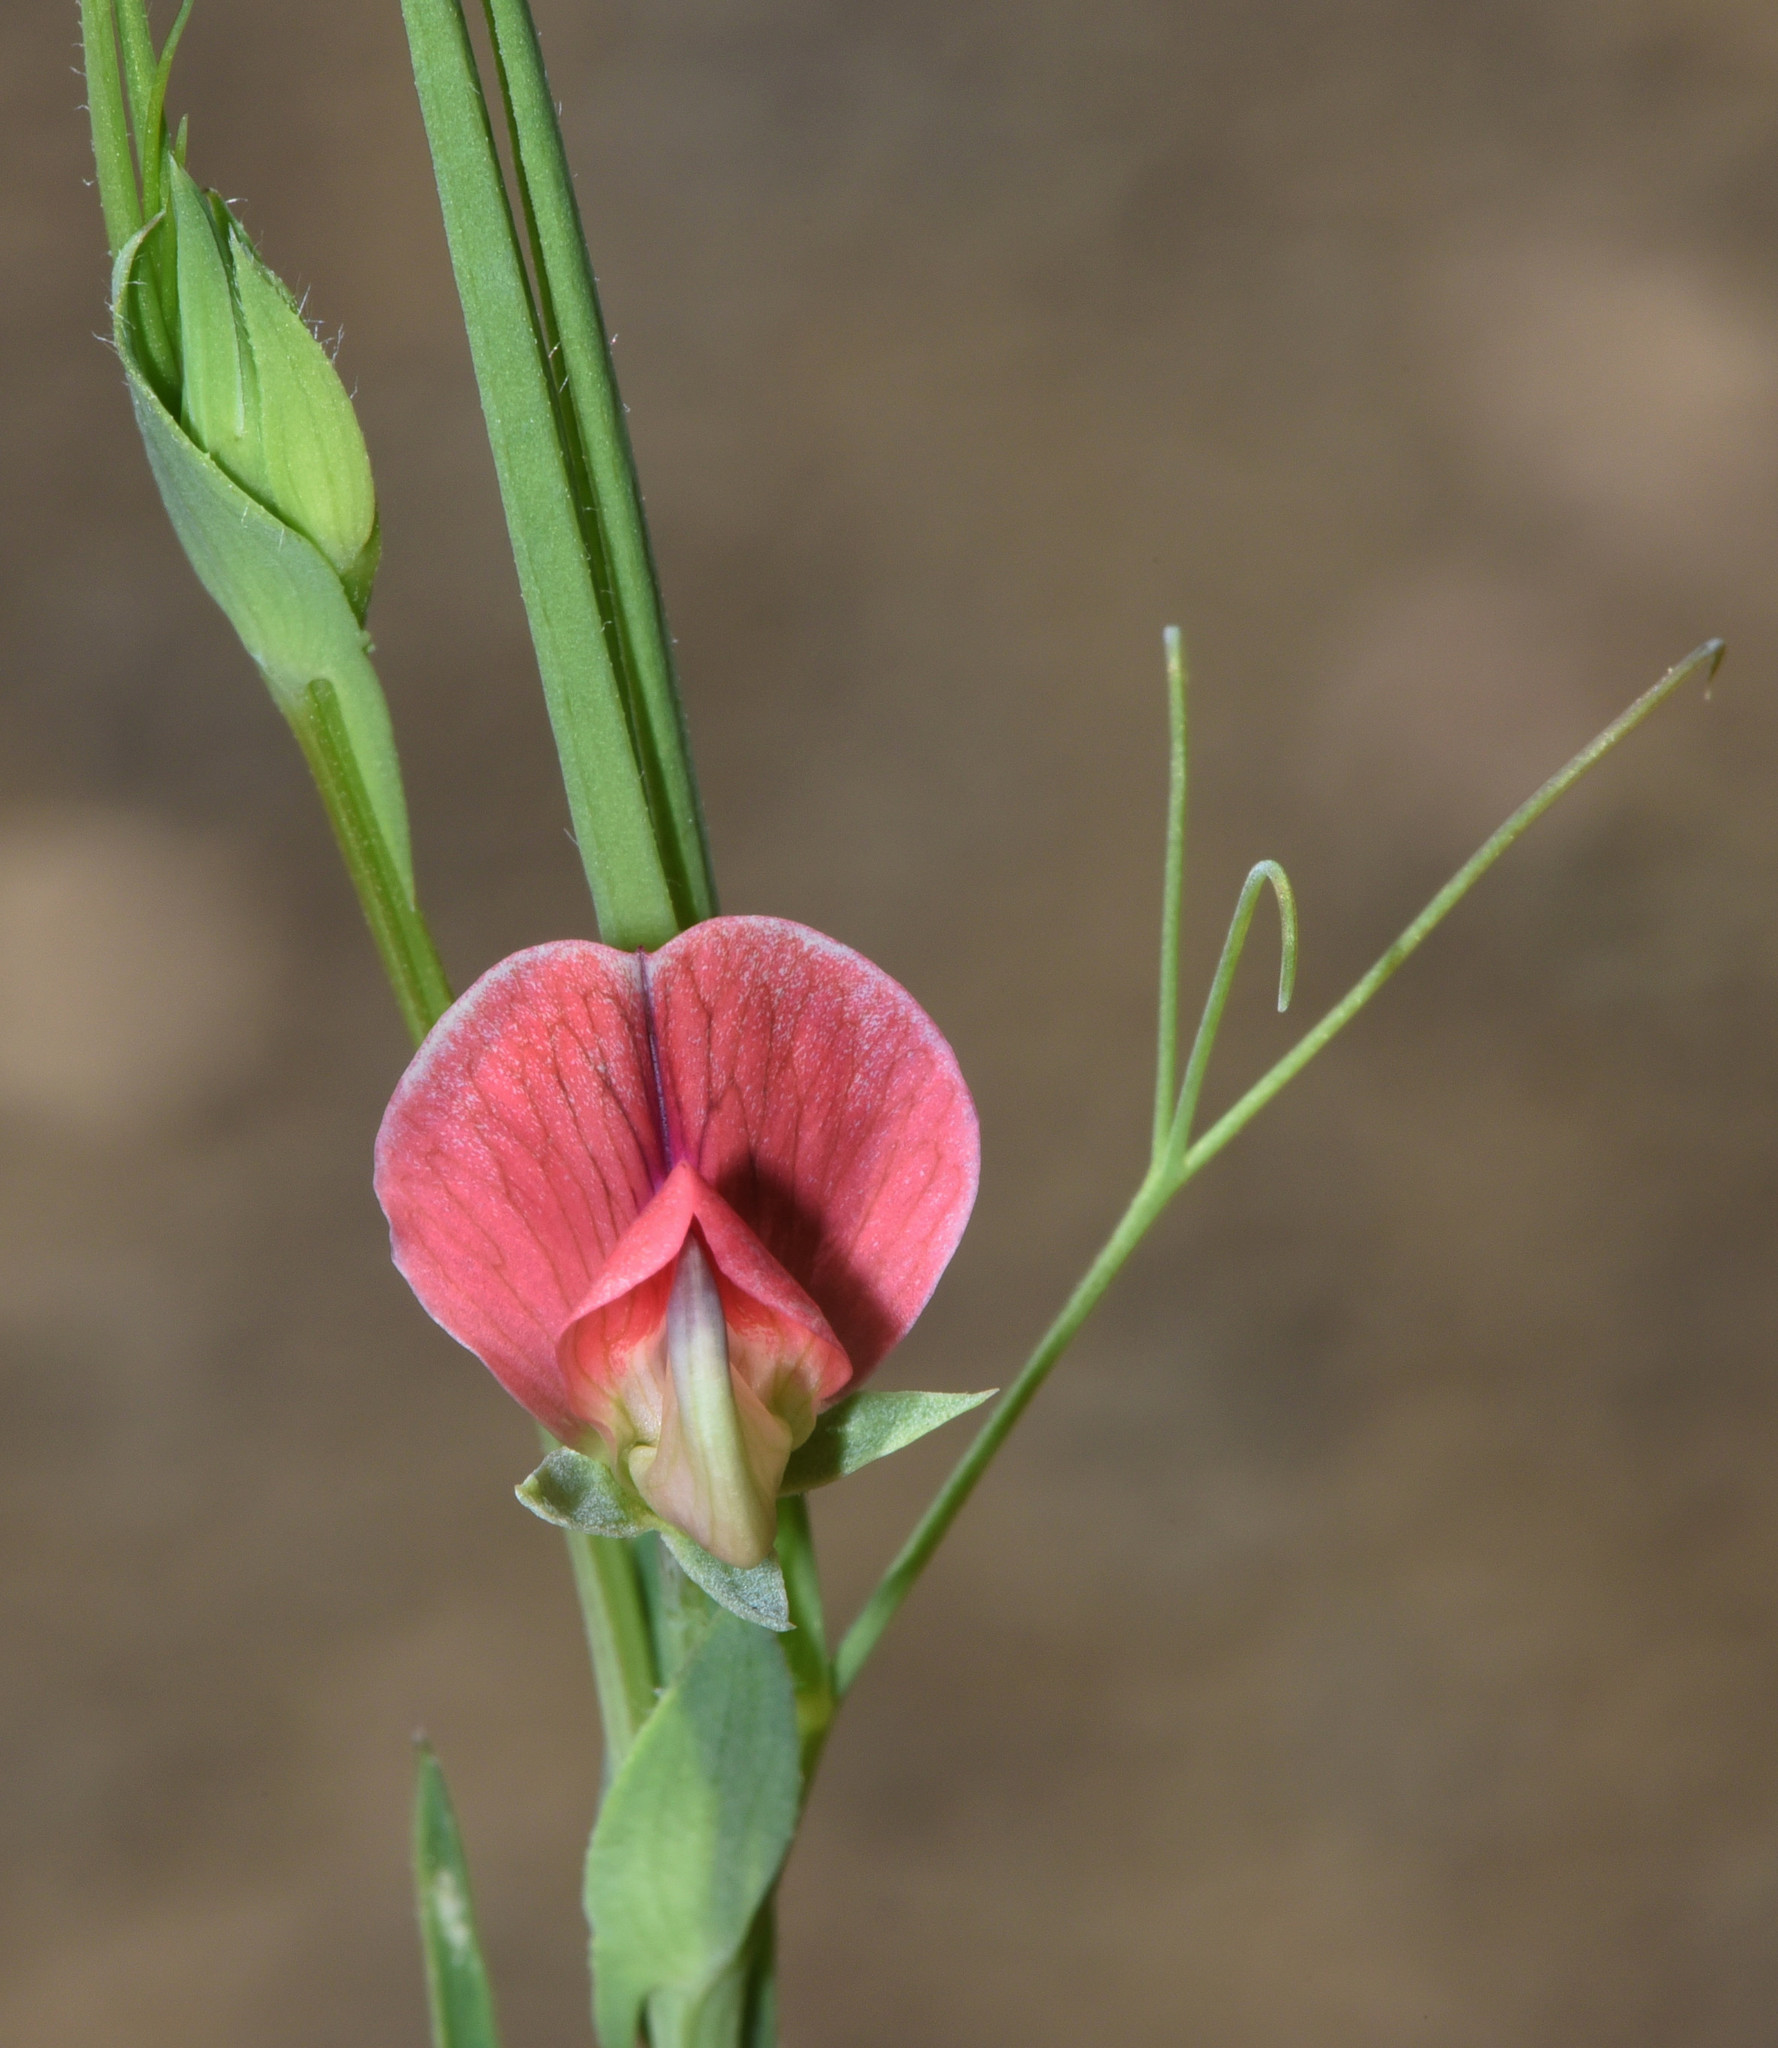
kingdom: Plantae
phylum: Tracheophyta
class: Magnoliopsida
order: Fabales
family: Fabaceae
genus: Lathyrus
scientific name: Lathyrus cicera
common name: Red vetchling
